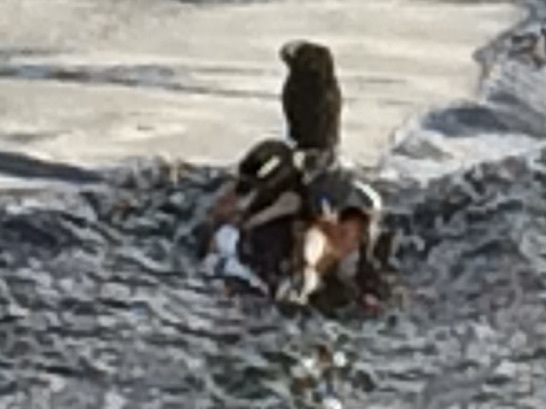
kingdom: Animalia
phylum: Chordata
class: Aves
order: Anseriformes
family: Anatidae
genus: Spatula
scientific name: Spatula clypeata
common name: Northern shoveler
